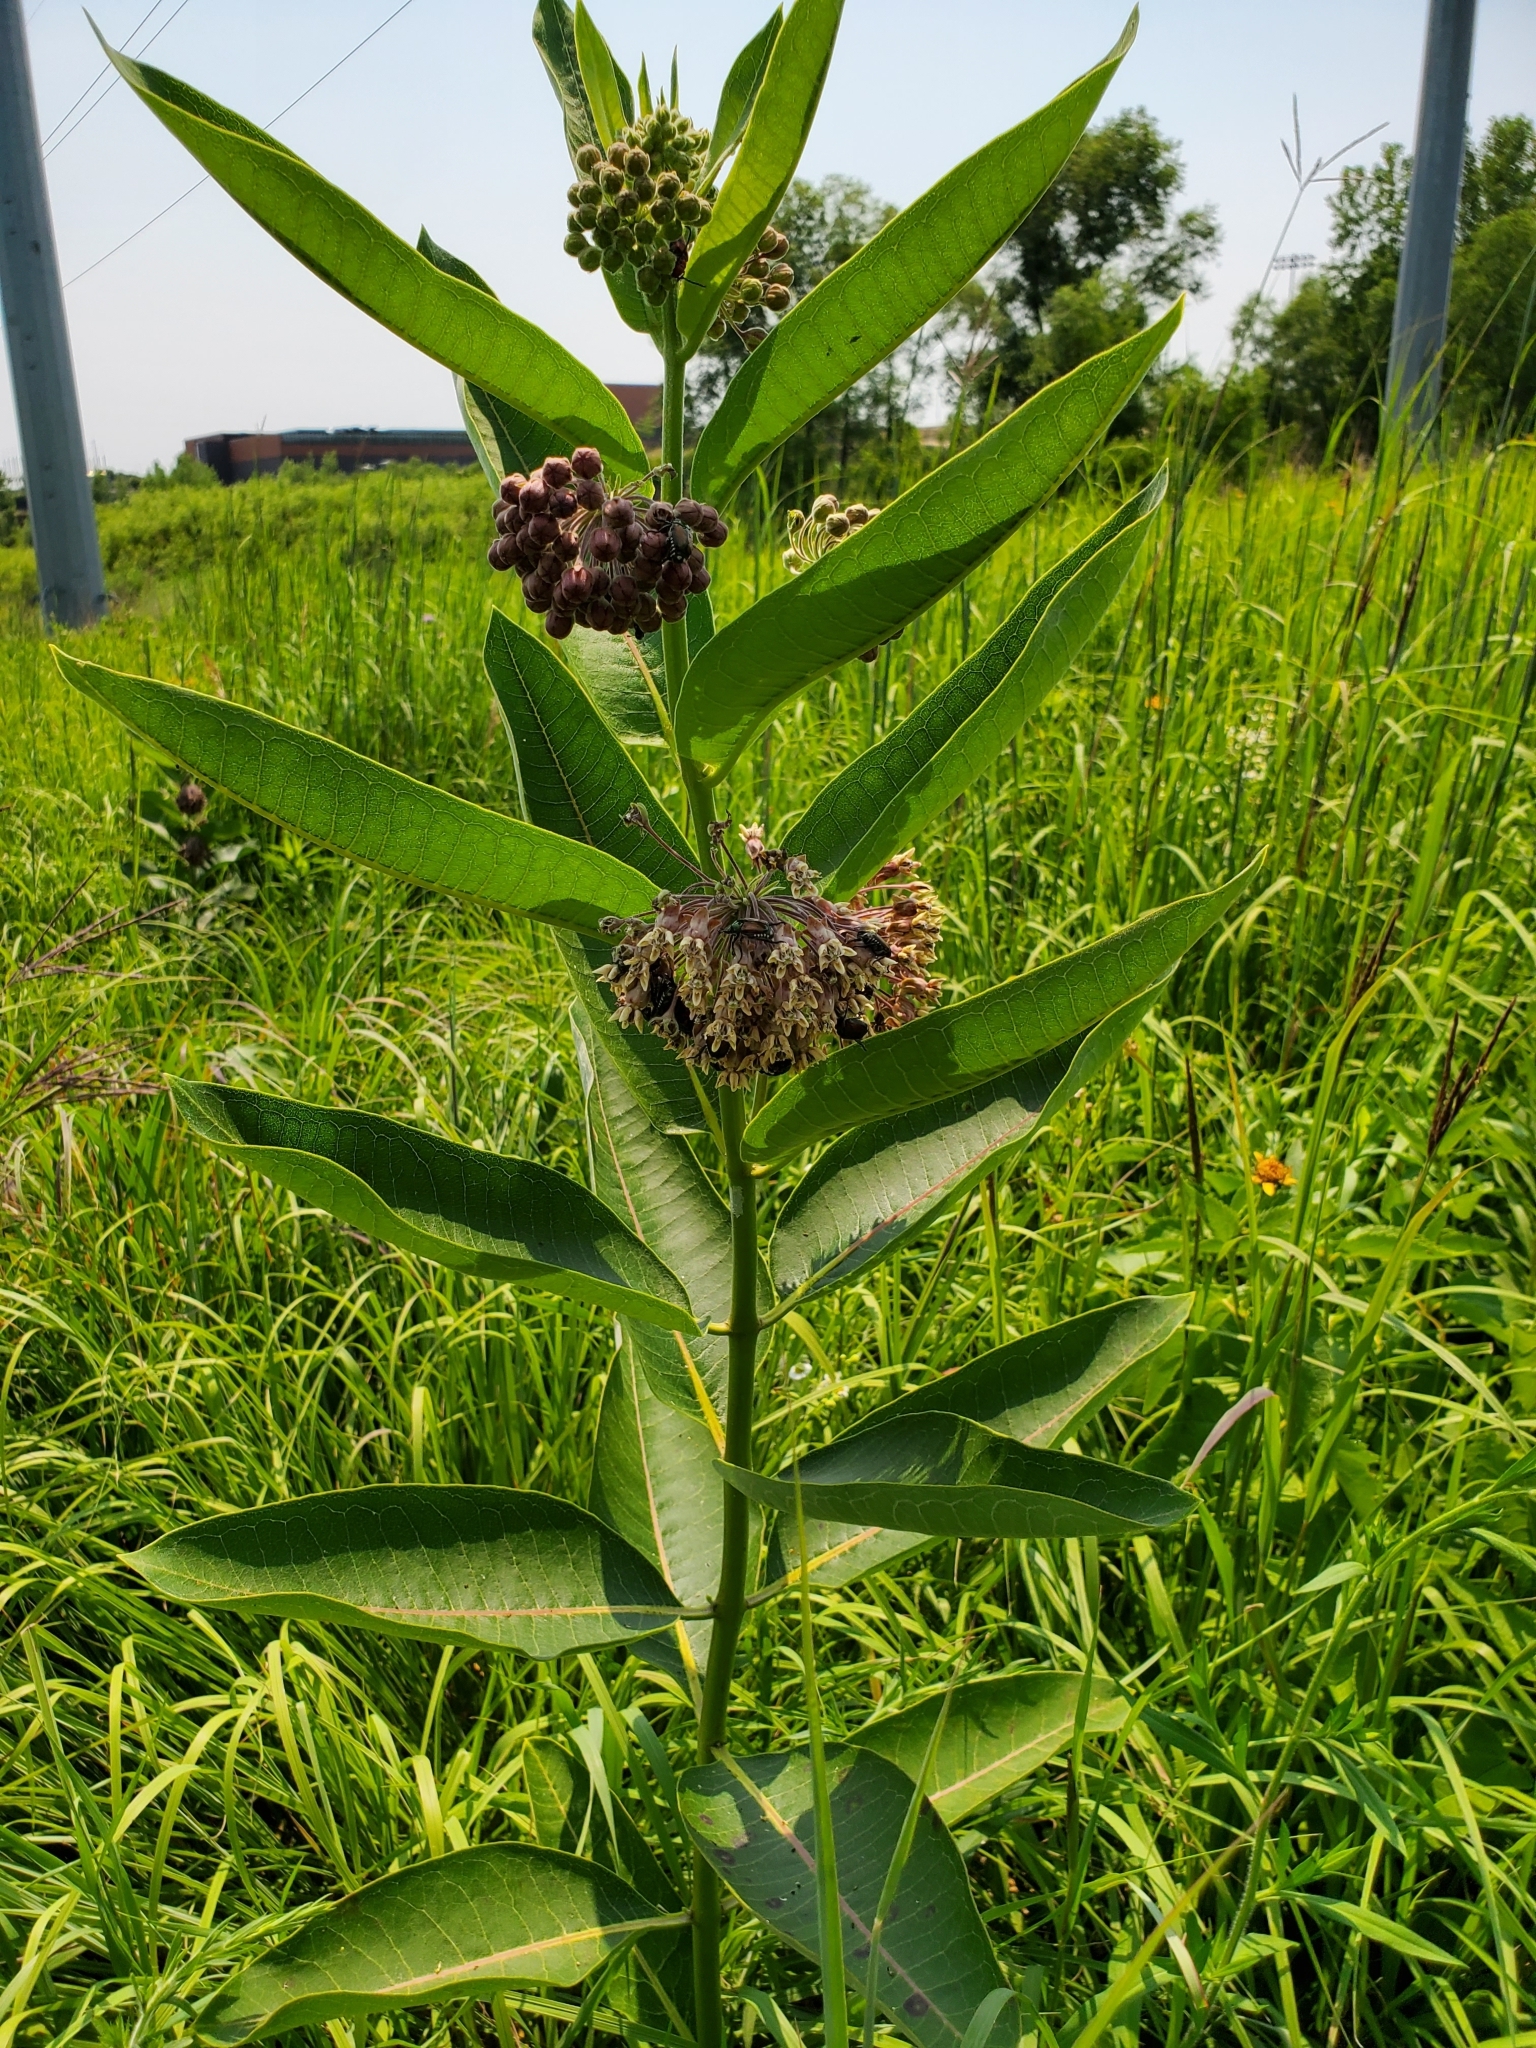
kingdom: Plantae
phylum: Tracheophyta
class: Magnoliopsida
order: Gentianales
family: Apocynaceae
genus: Asclepias
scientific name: Asclepias syriaca
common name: Common milkweed
